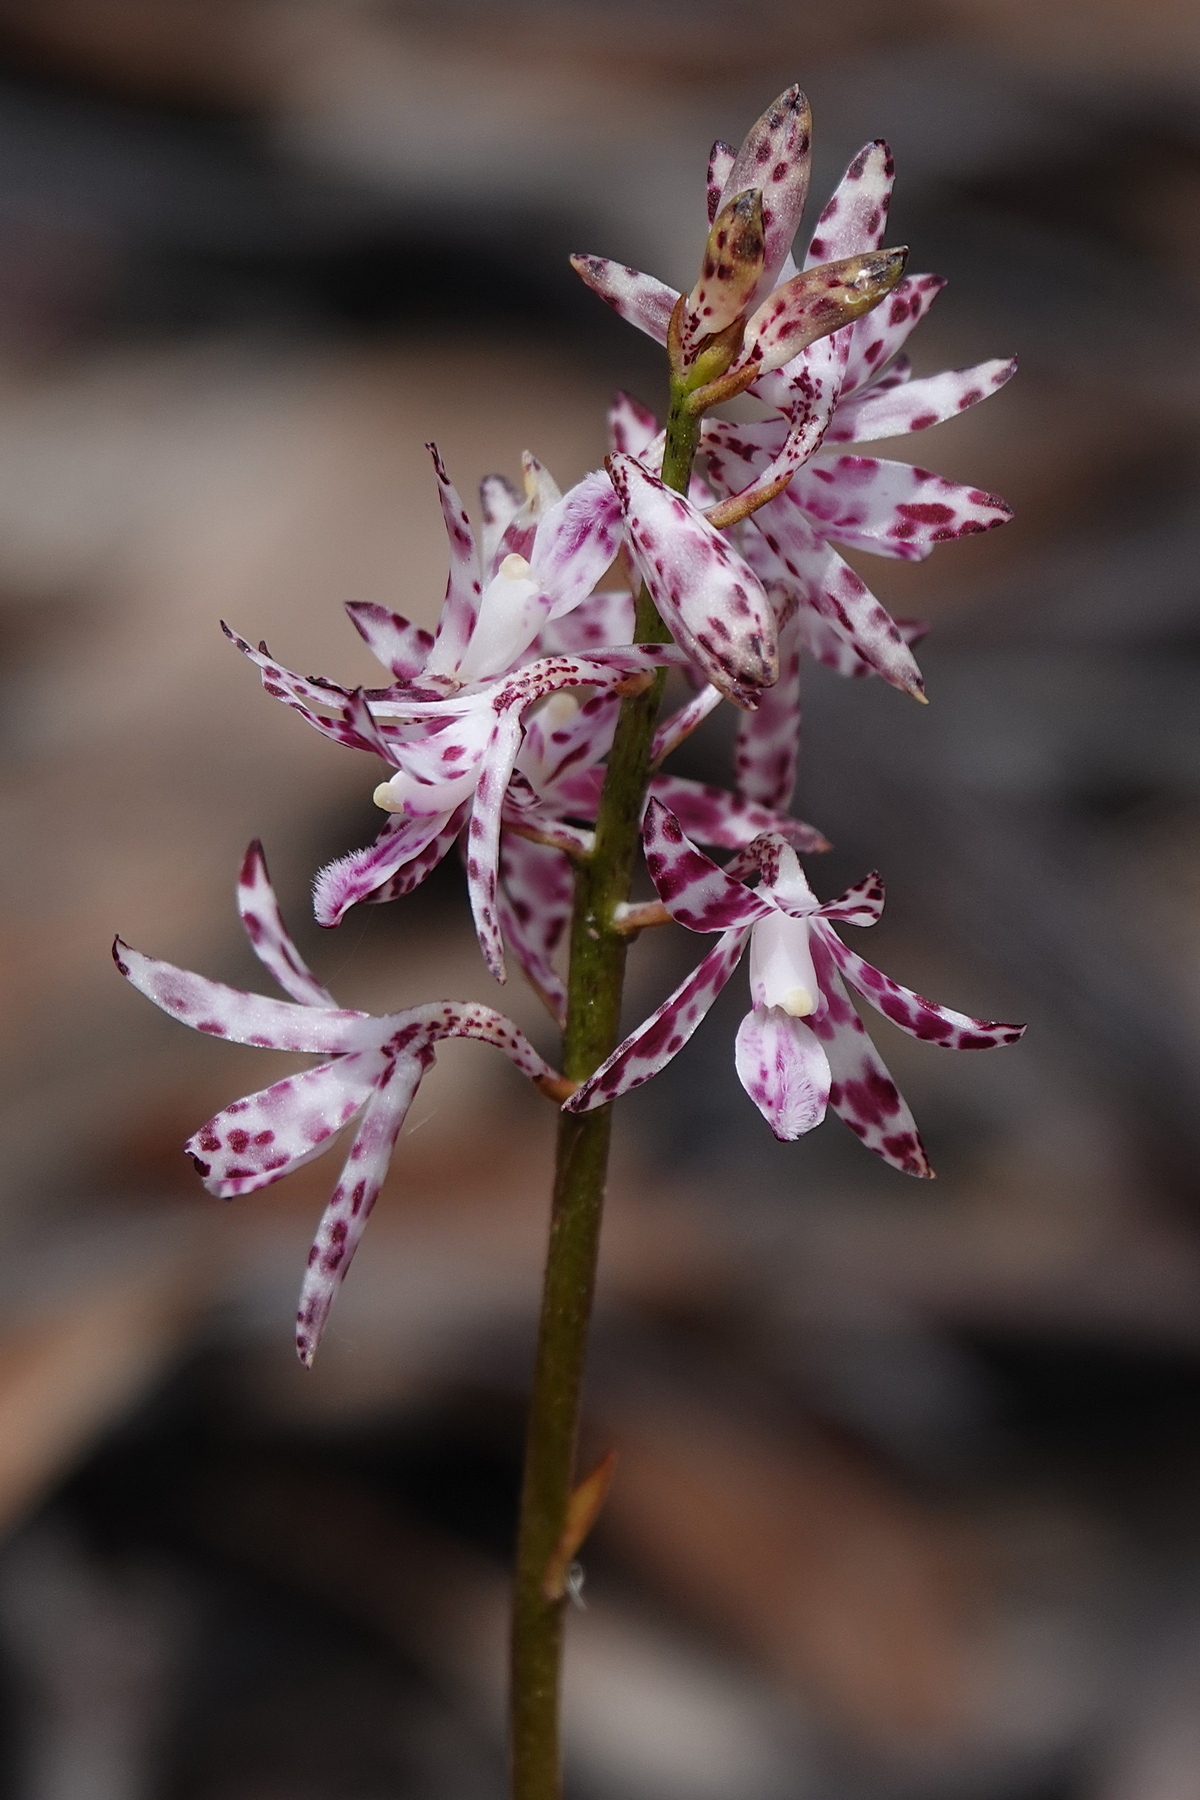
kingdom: Plantae
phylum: Tracheophyta
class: Liliopsida
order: Asparagales
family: Orchidaceae
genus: Dipodium
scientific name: Dipodium variegatum
